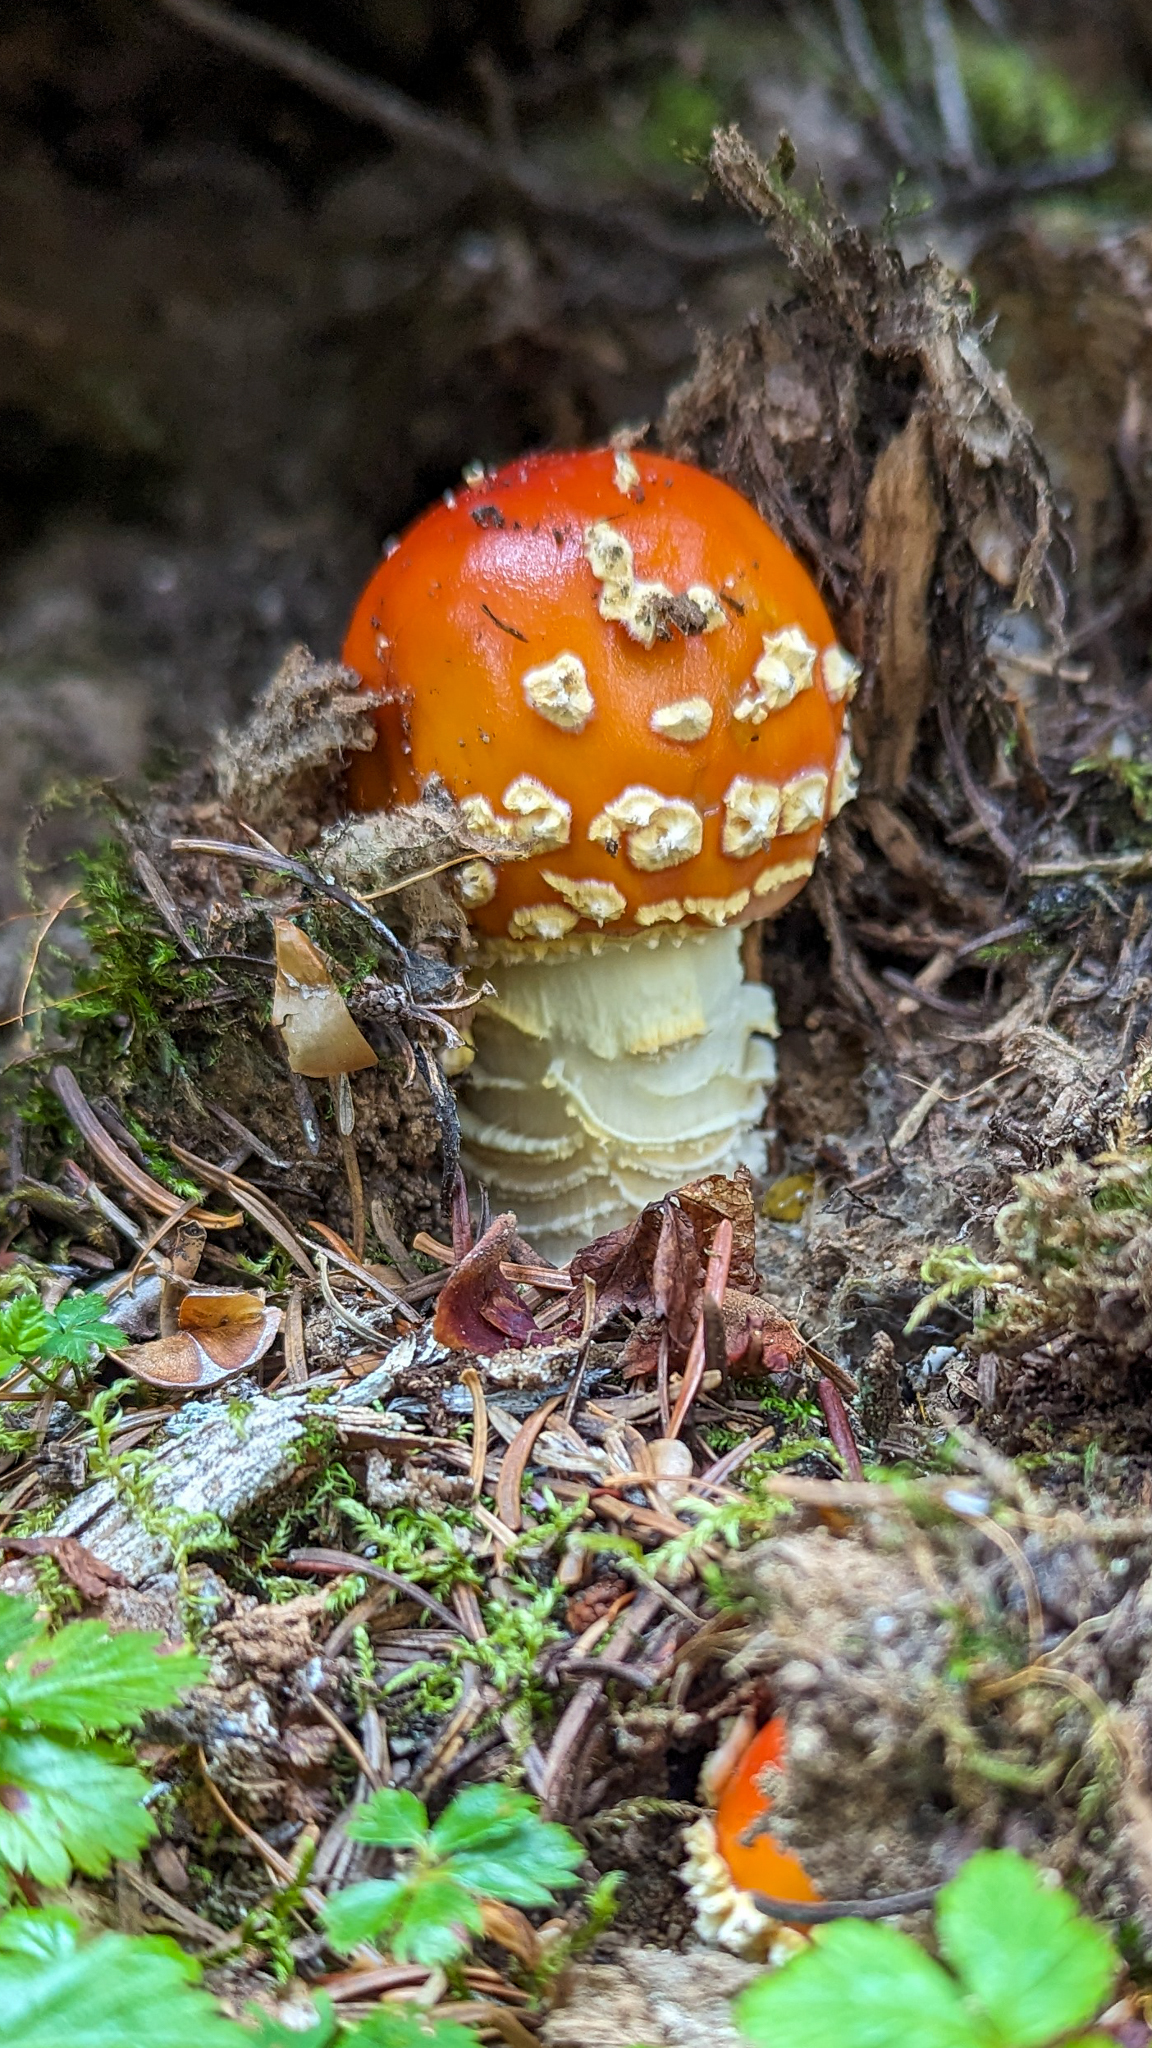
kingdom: Fungi
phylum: Basidiomycota
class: Agaricomycetes
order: Agaricales
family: Amanitaceae
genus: Amanita
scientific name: Amanita muscaria
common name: Fly agaric
